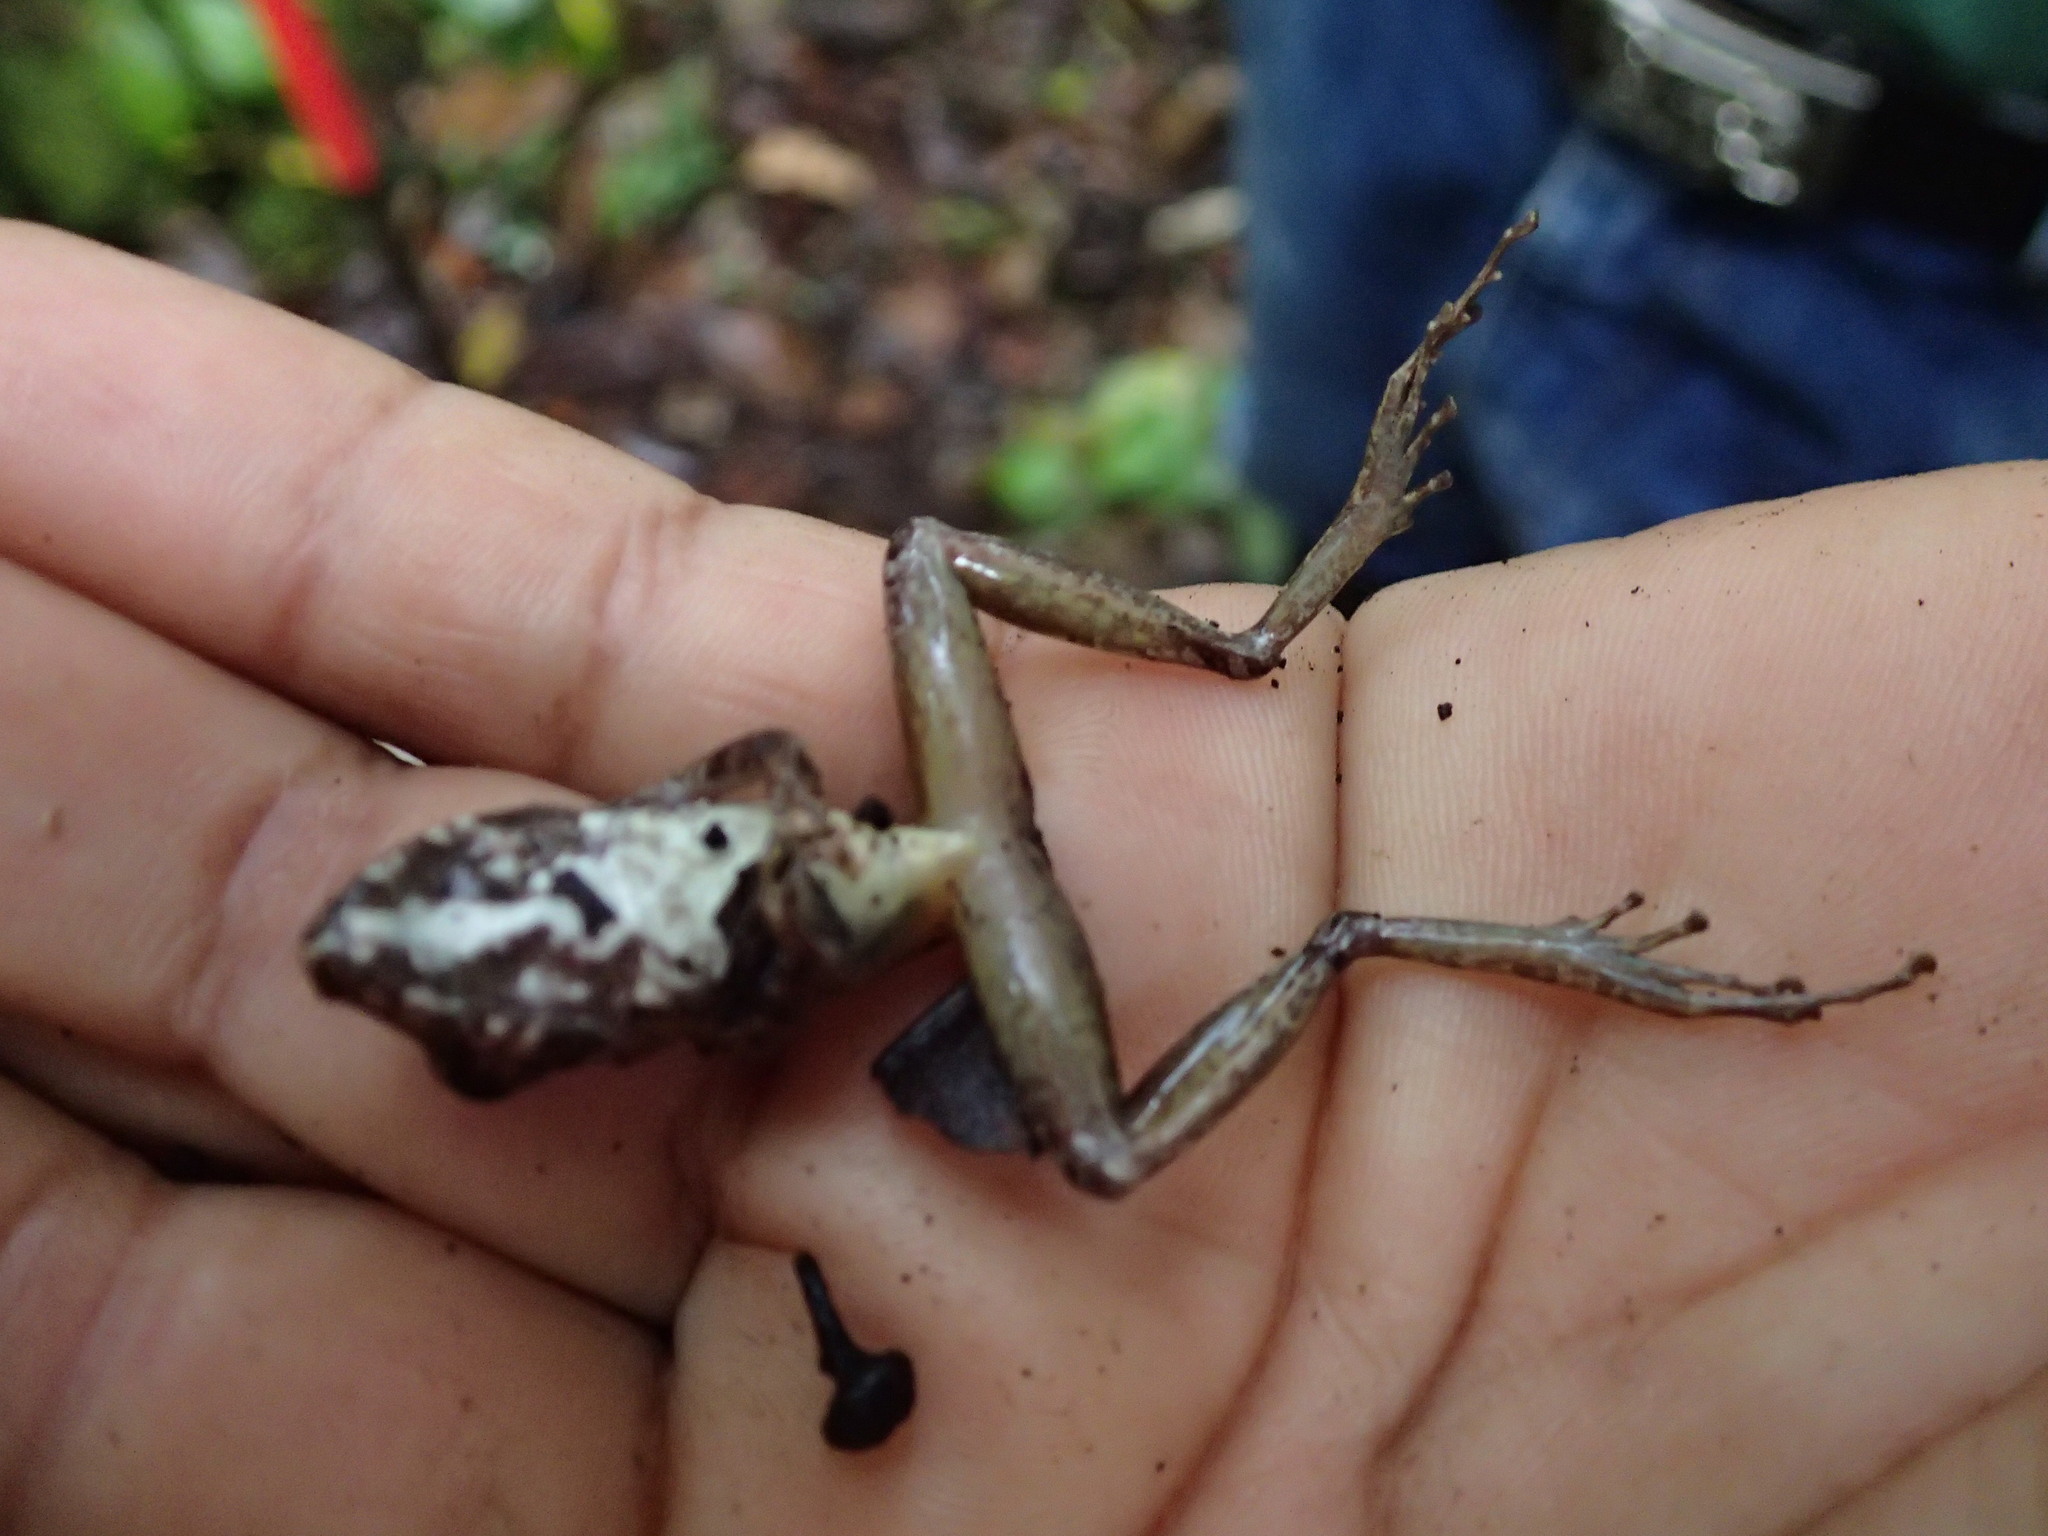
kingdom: Animalia
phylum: Chordata
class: Amphibia
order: Anura
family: Craugastoridae
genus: Pristimantis
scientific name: Pristimantis lanthanites
